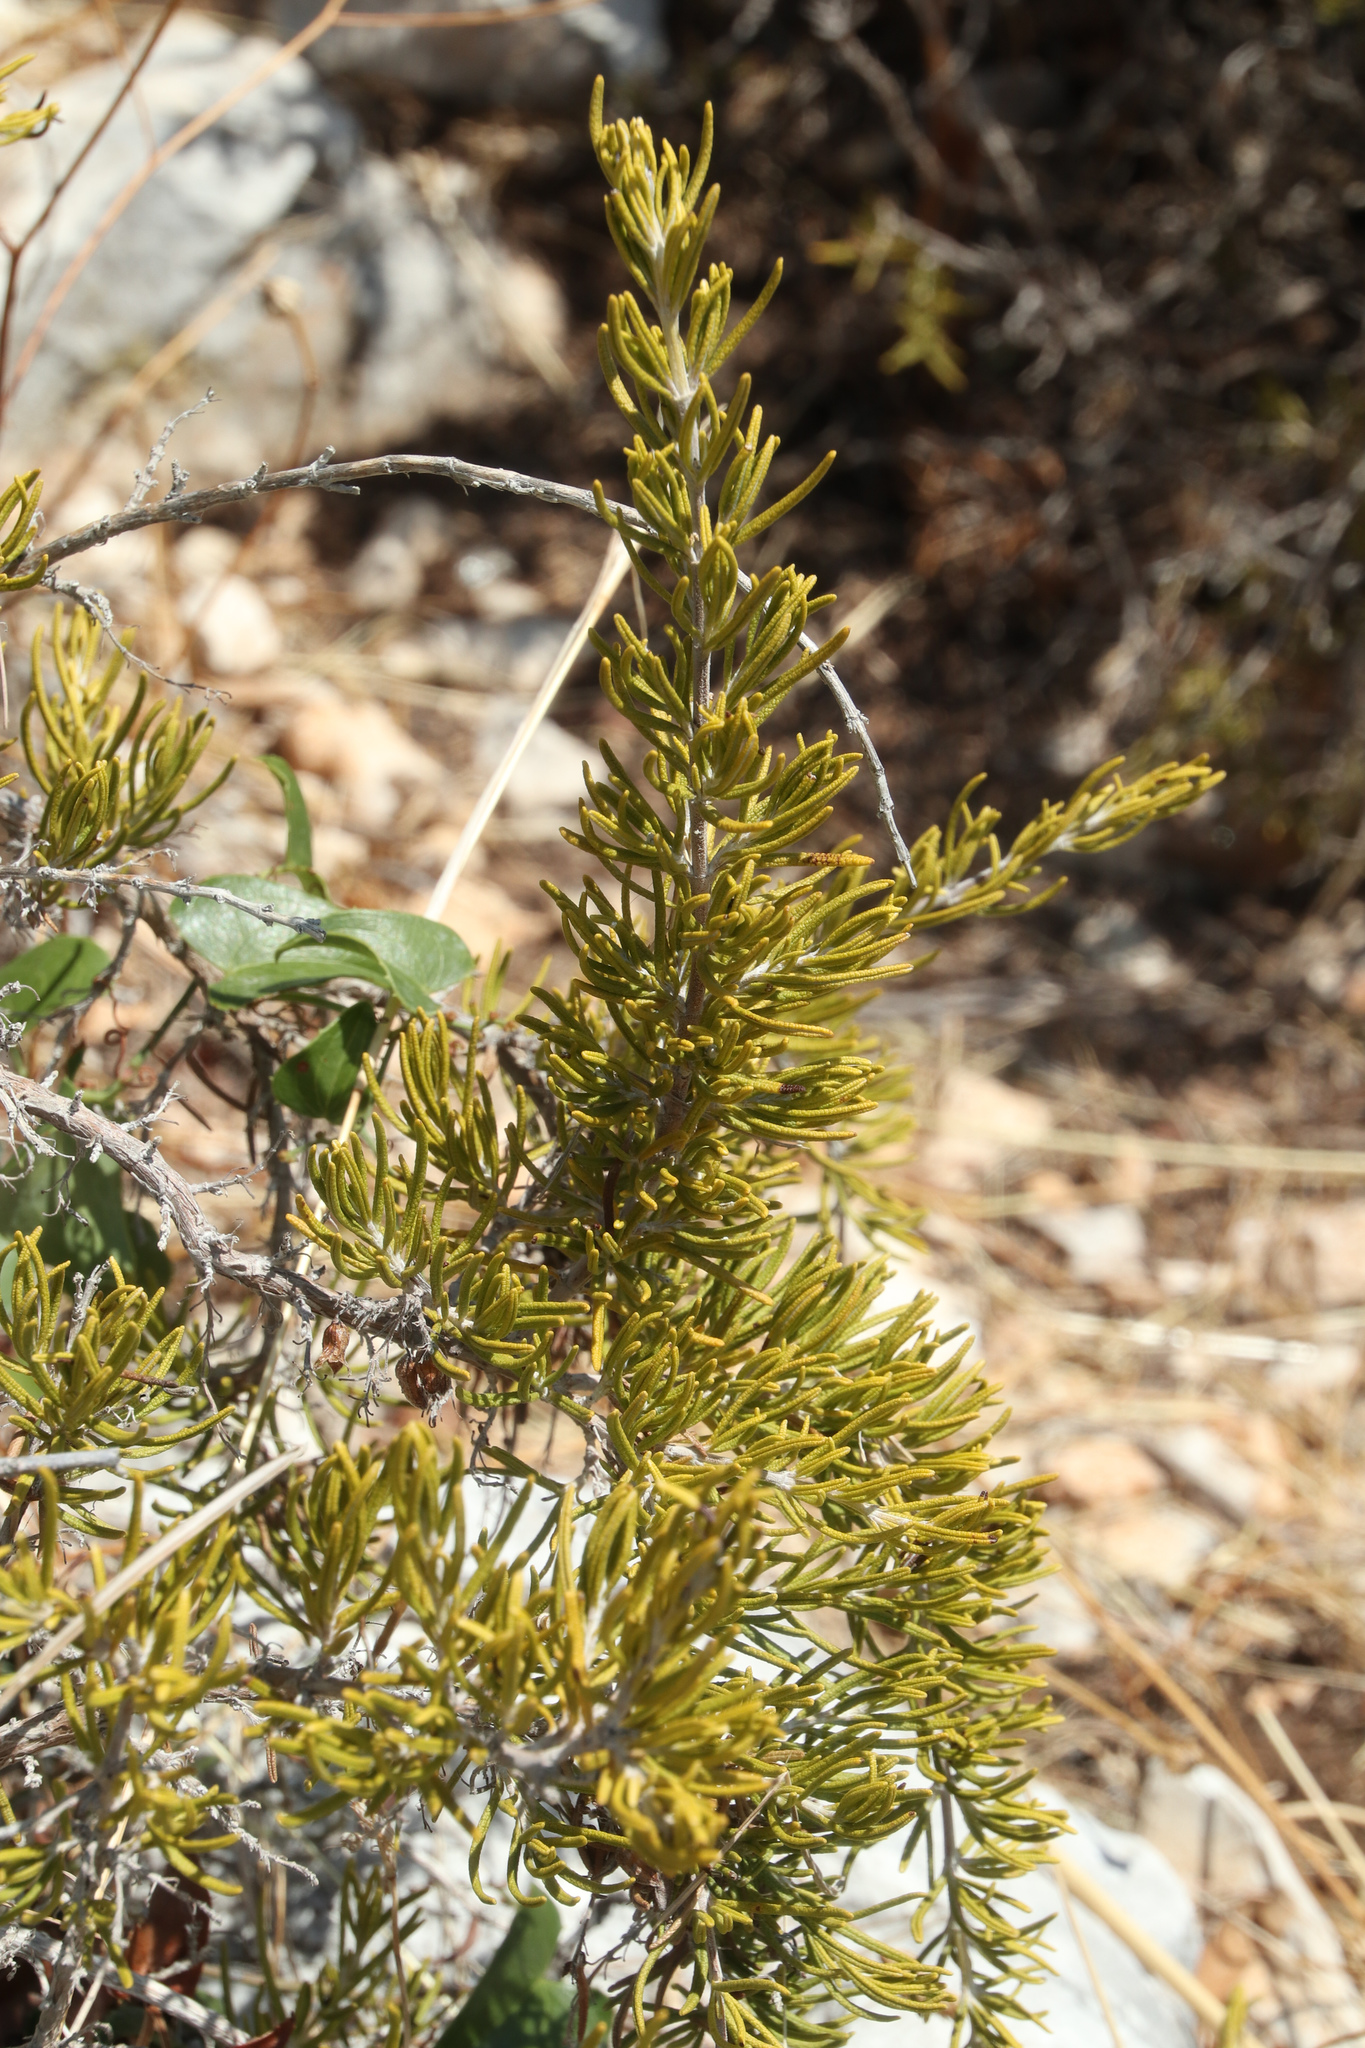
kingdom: Plantae
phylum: Tracheophyta
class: Magnoliopsida
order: Lamiales
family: Lamiaceae
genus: Salvia
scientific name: Salvia rosmarinus
